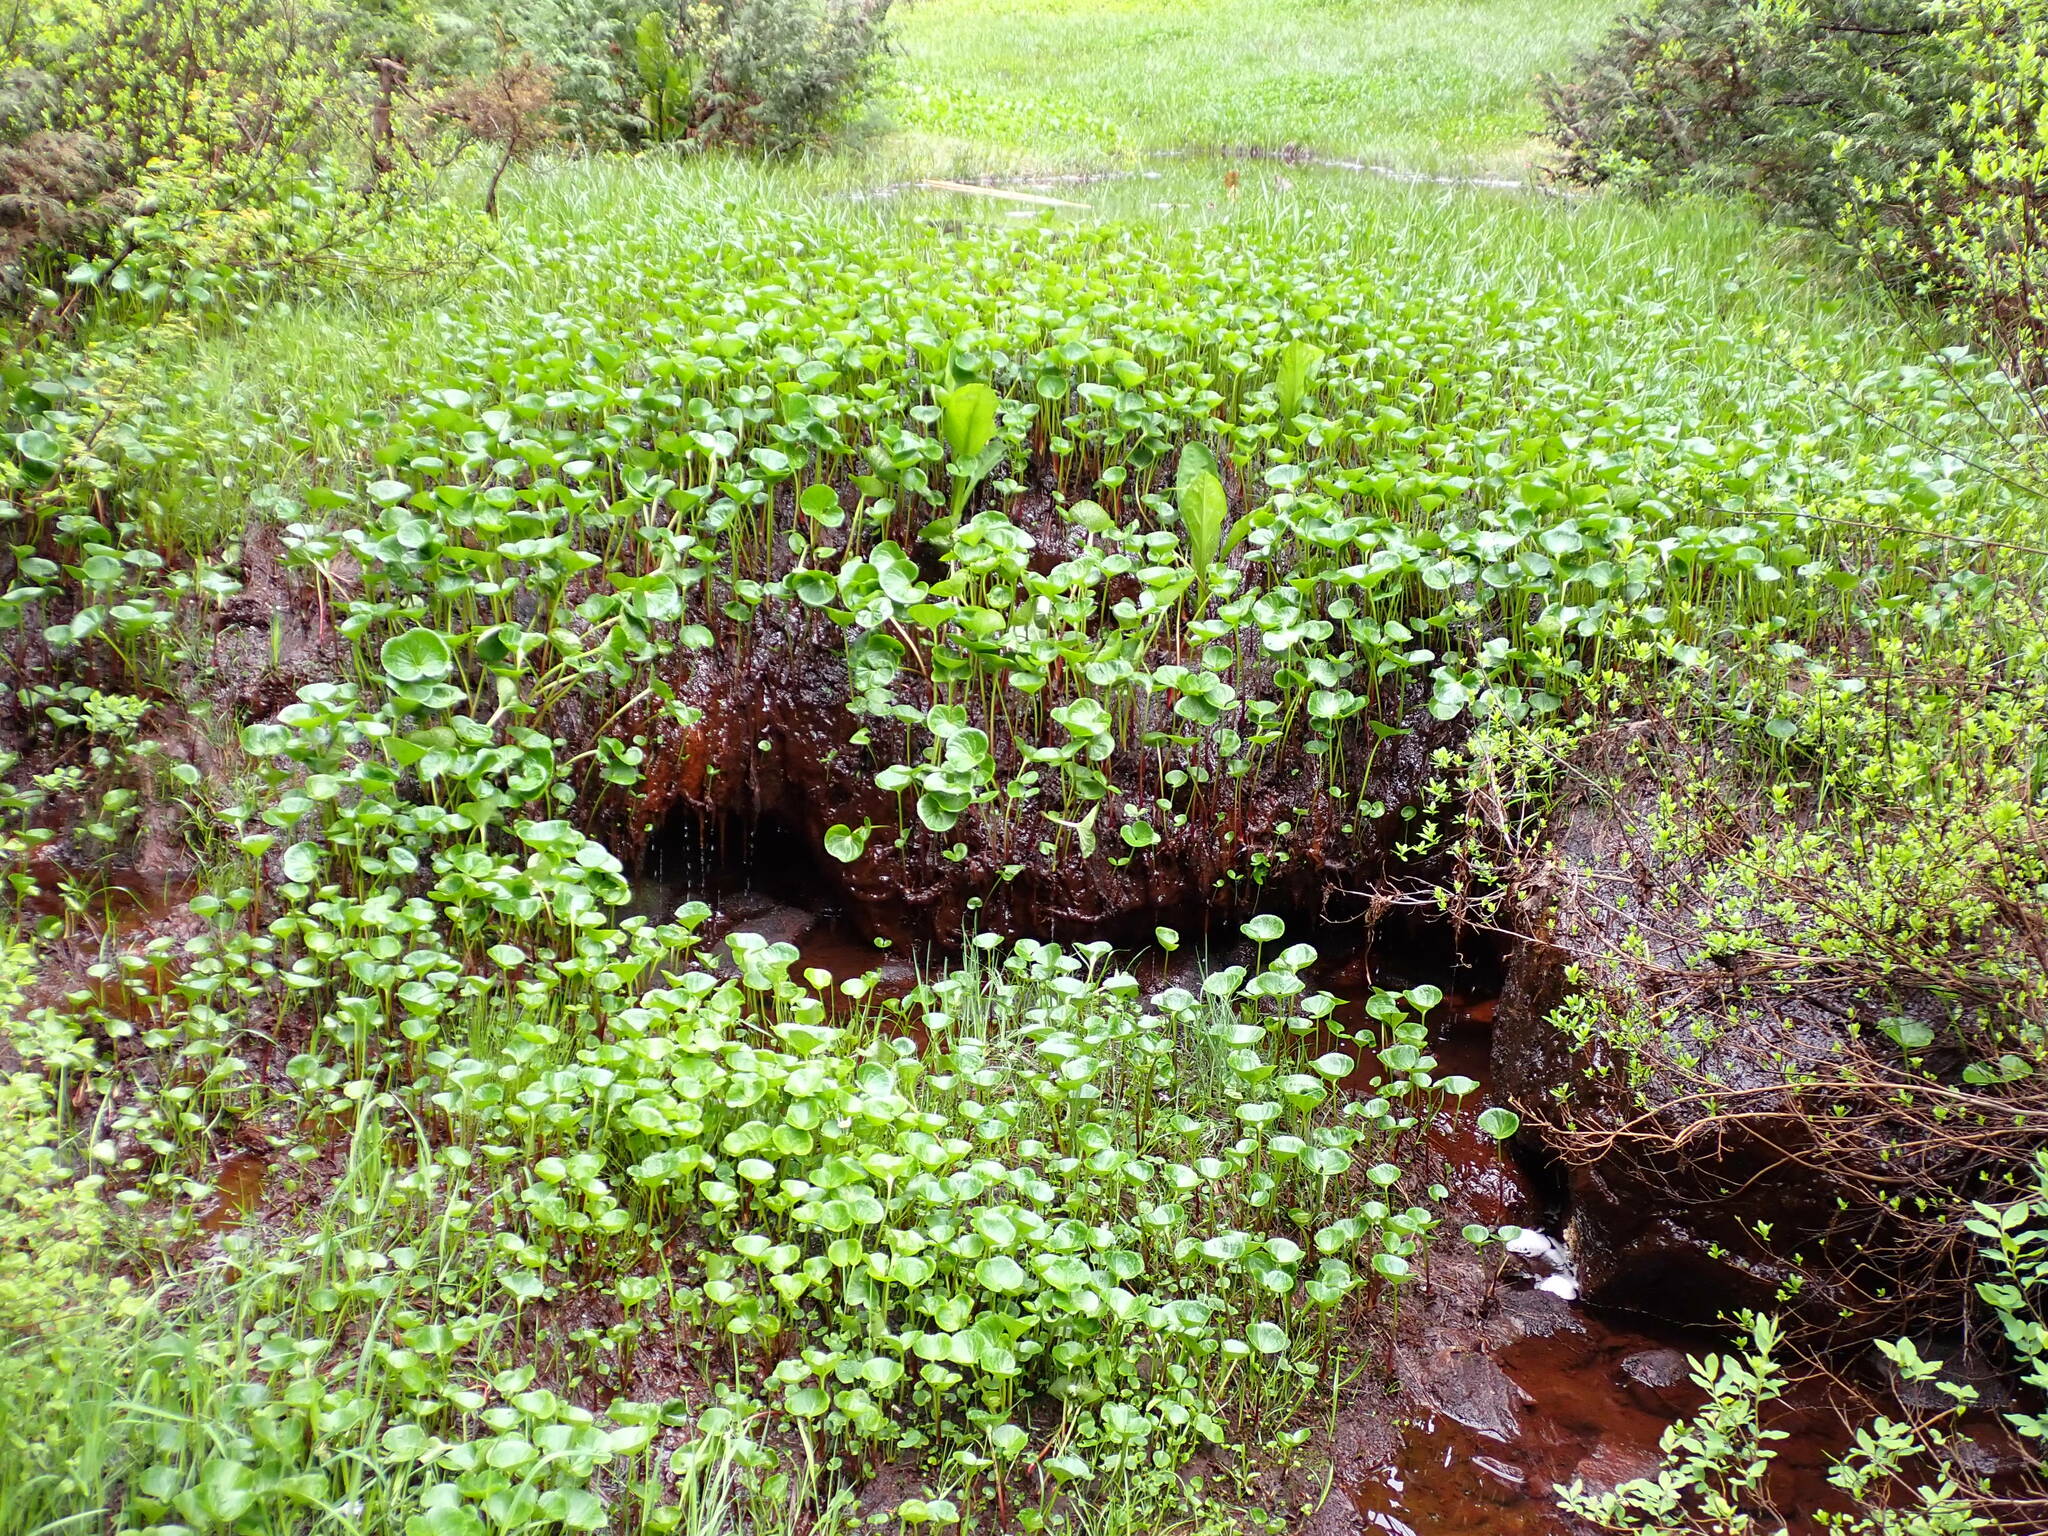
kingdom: Plantae
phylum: Tracheophyta
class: Magnoliopsida
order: Asterales
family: Menyanthaceae
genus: Nephrophyllidium
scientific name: Nephrophyllidium crista-galli
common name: Deer-cabbage
